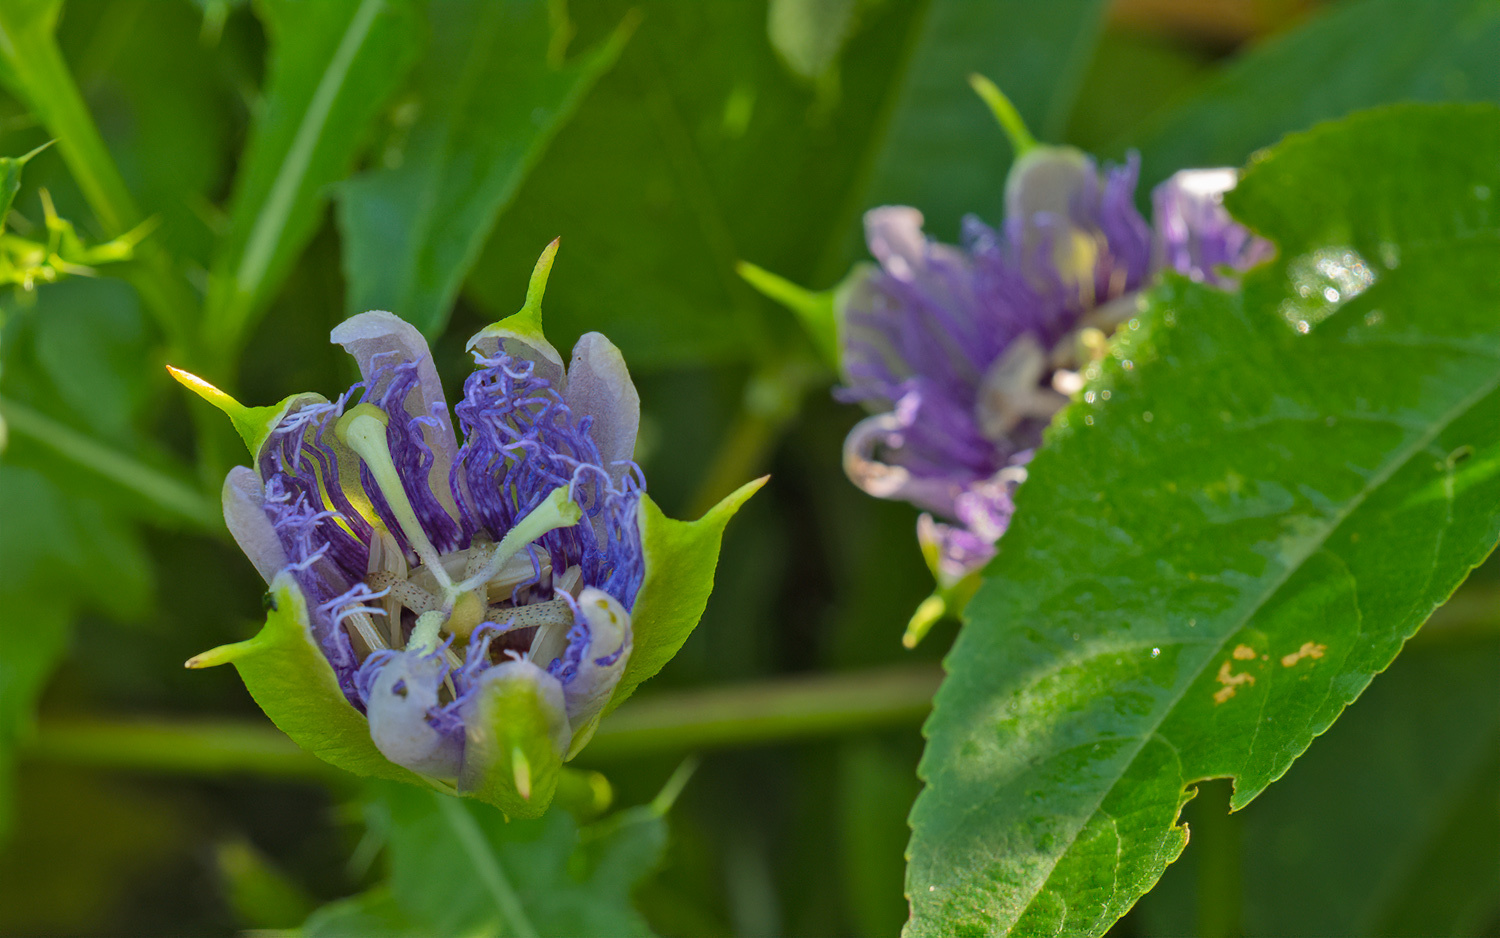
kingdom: Plantae
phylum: Tracheophyta
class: Magnoliopsida
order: Malpighiales
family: Passifloraceae
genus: Passiflora
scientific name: Passiflora incarnata
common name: Apricot-vine
